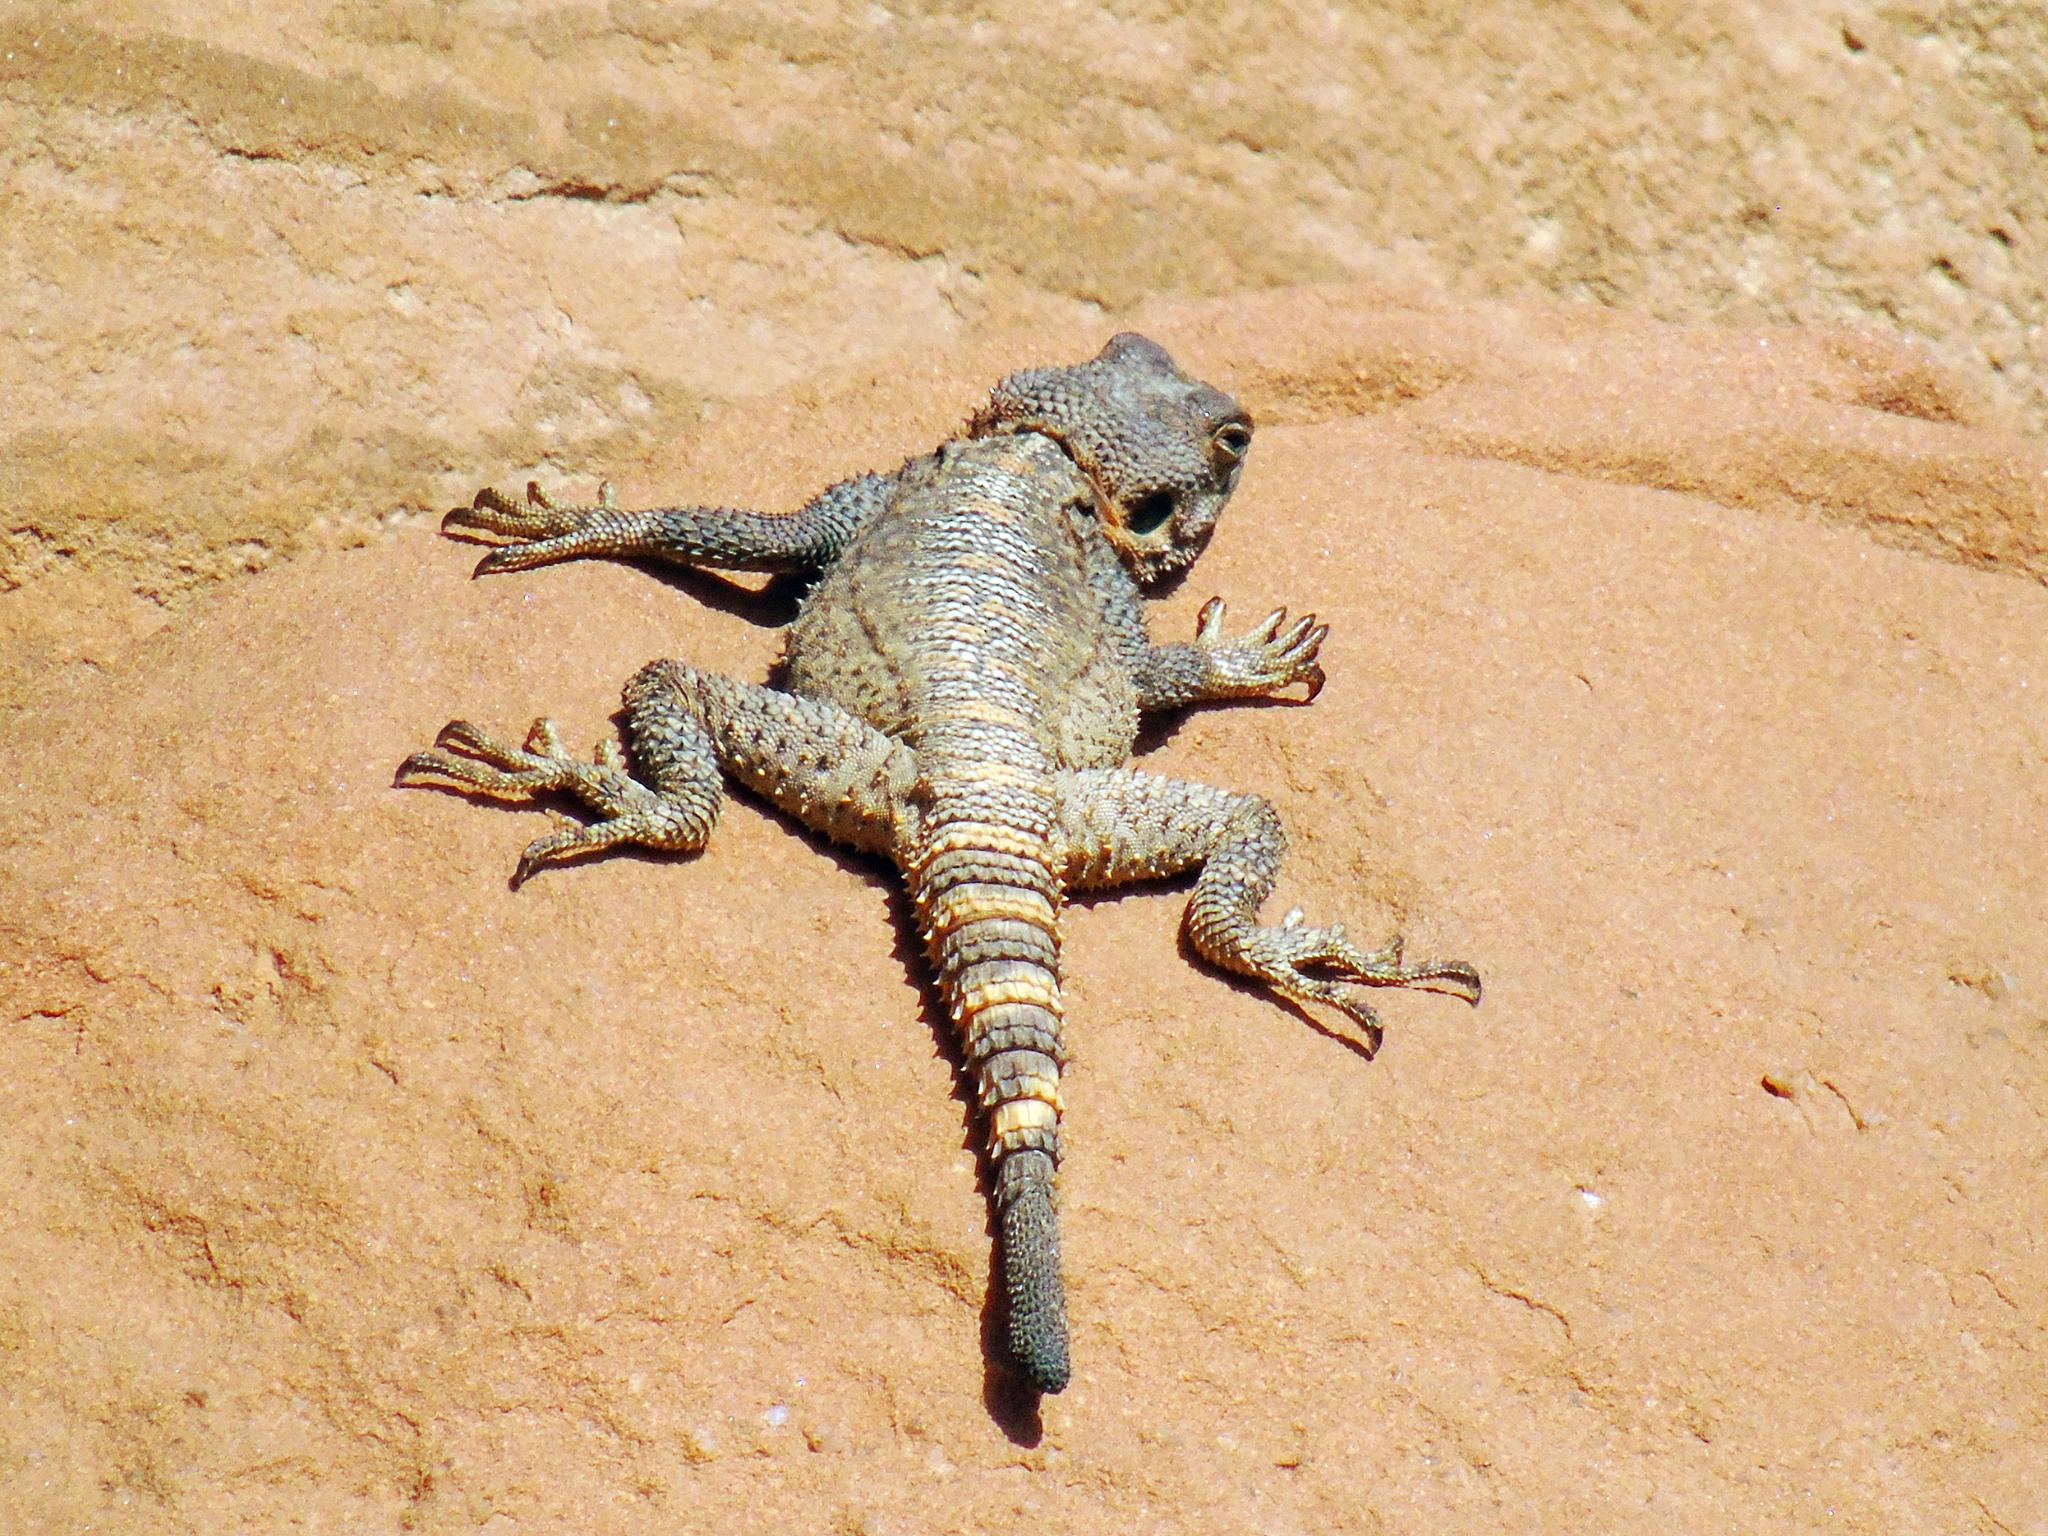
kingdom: Animalia
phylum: Chordata
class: Squamata
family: Agamidae
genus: Laudakia
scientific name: Laudakia vulgaris
